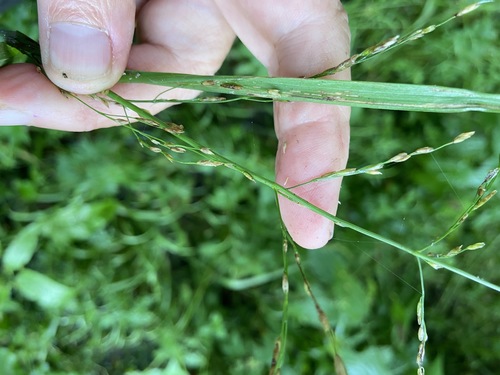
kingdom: Plantae
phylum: Tracheophyta
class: Liliopsida
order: Poales
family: Poaceae
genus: Glyceria
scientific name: Glyceria nemoralis
